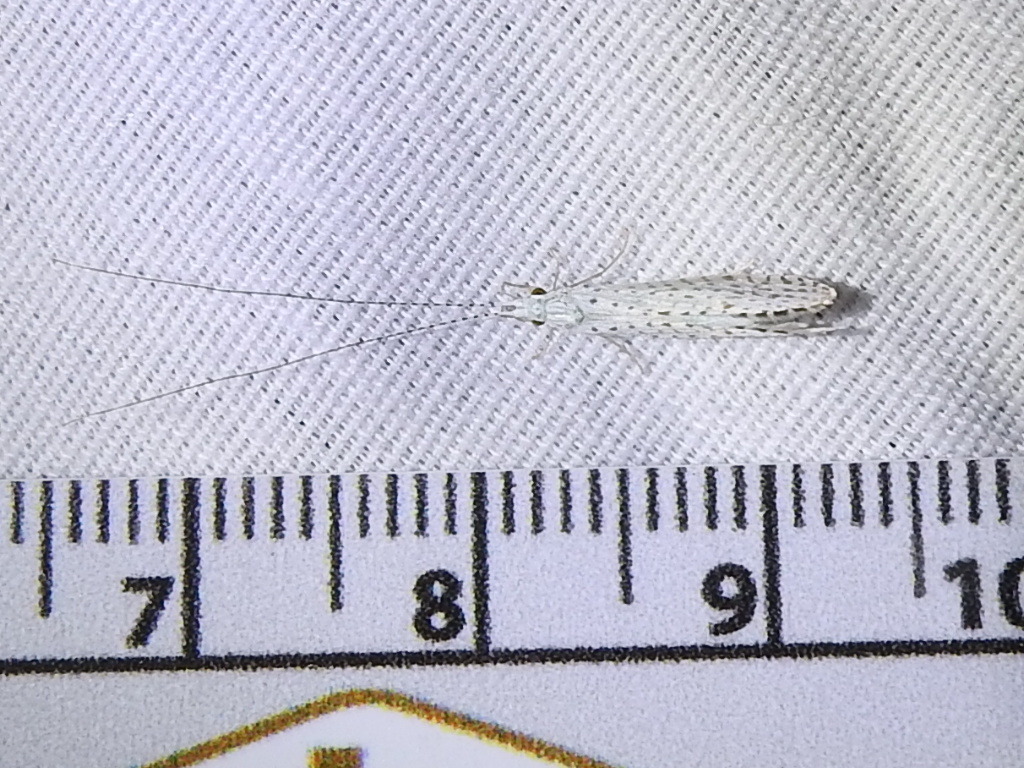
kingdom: Animalia
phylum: Arthropoda
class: Insecta
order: Trichoptera
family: Leptoceridae
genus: Nectopsyche
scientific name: Nectopsyche candida
